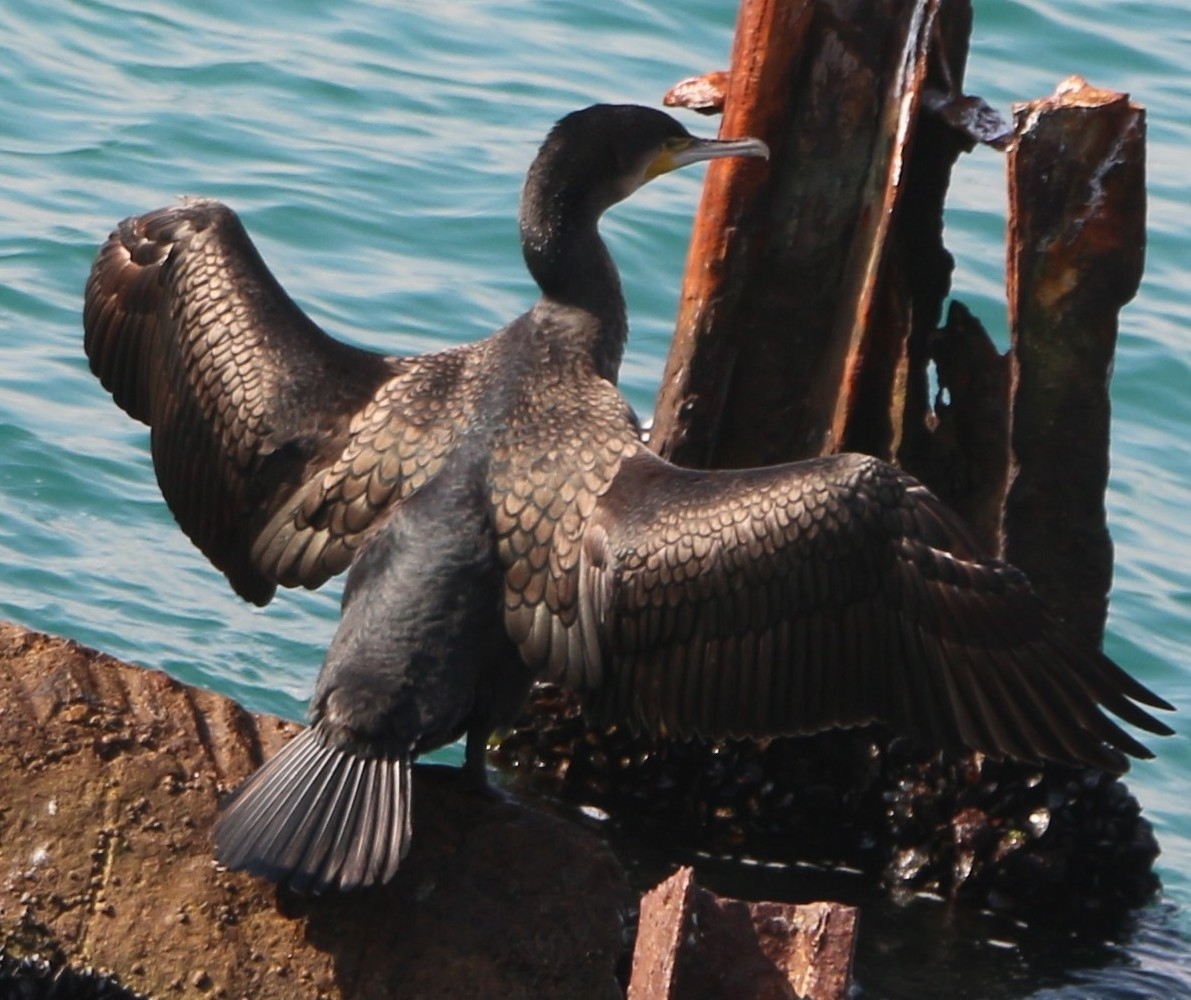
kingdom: Animalia
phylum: Chordata
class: Aves
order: Suliformes
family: Phalacrocoracidae
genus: Phalacrocorax
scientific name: Phalacrocorax carbo
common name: Great cormorant
